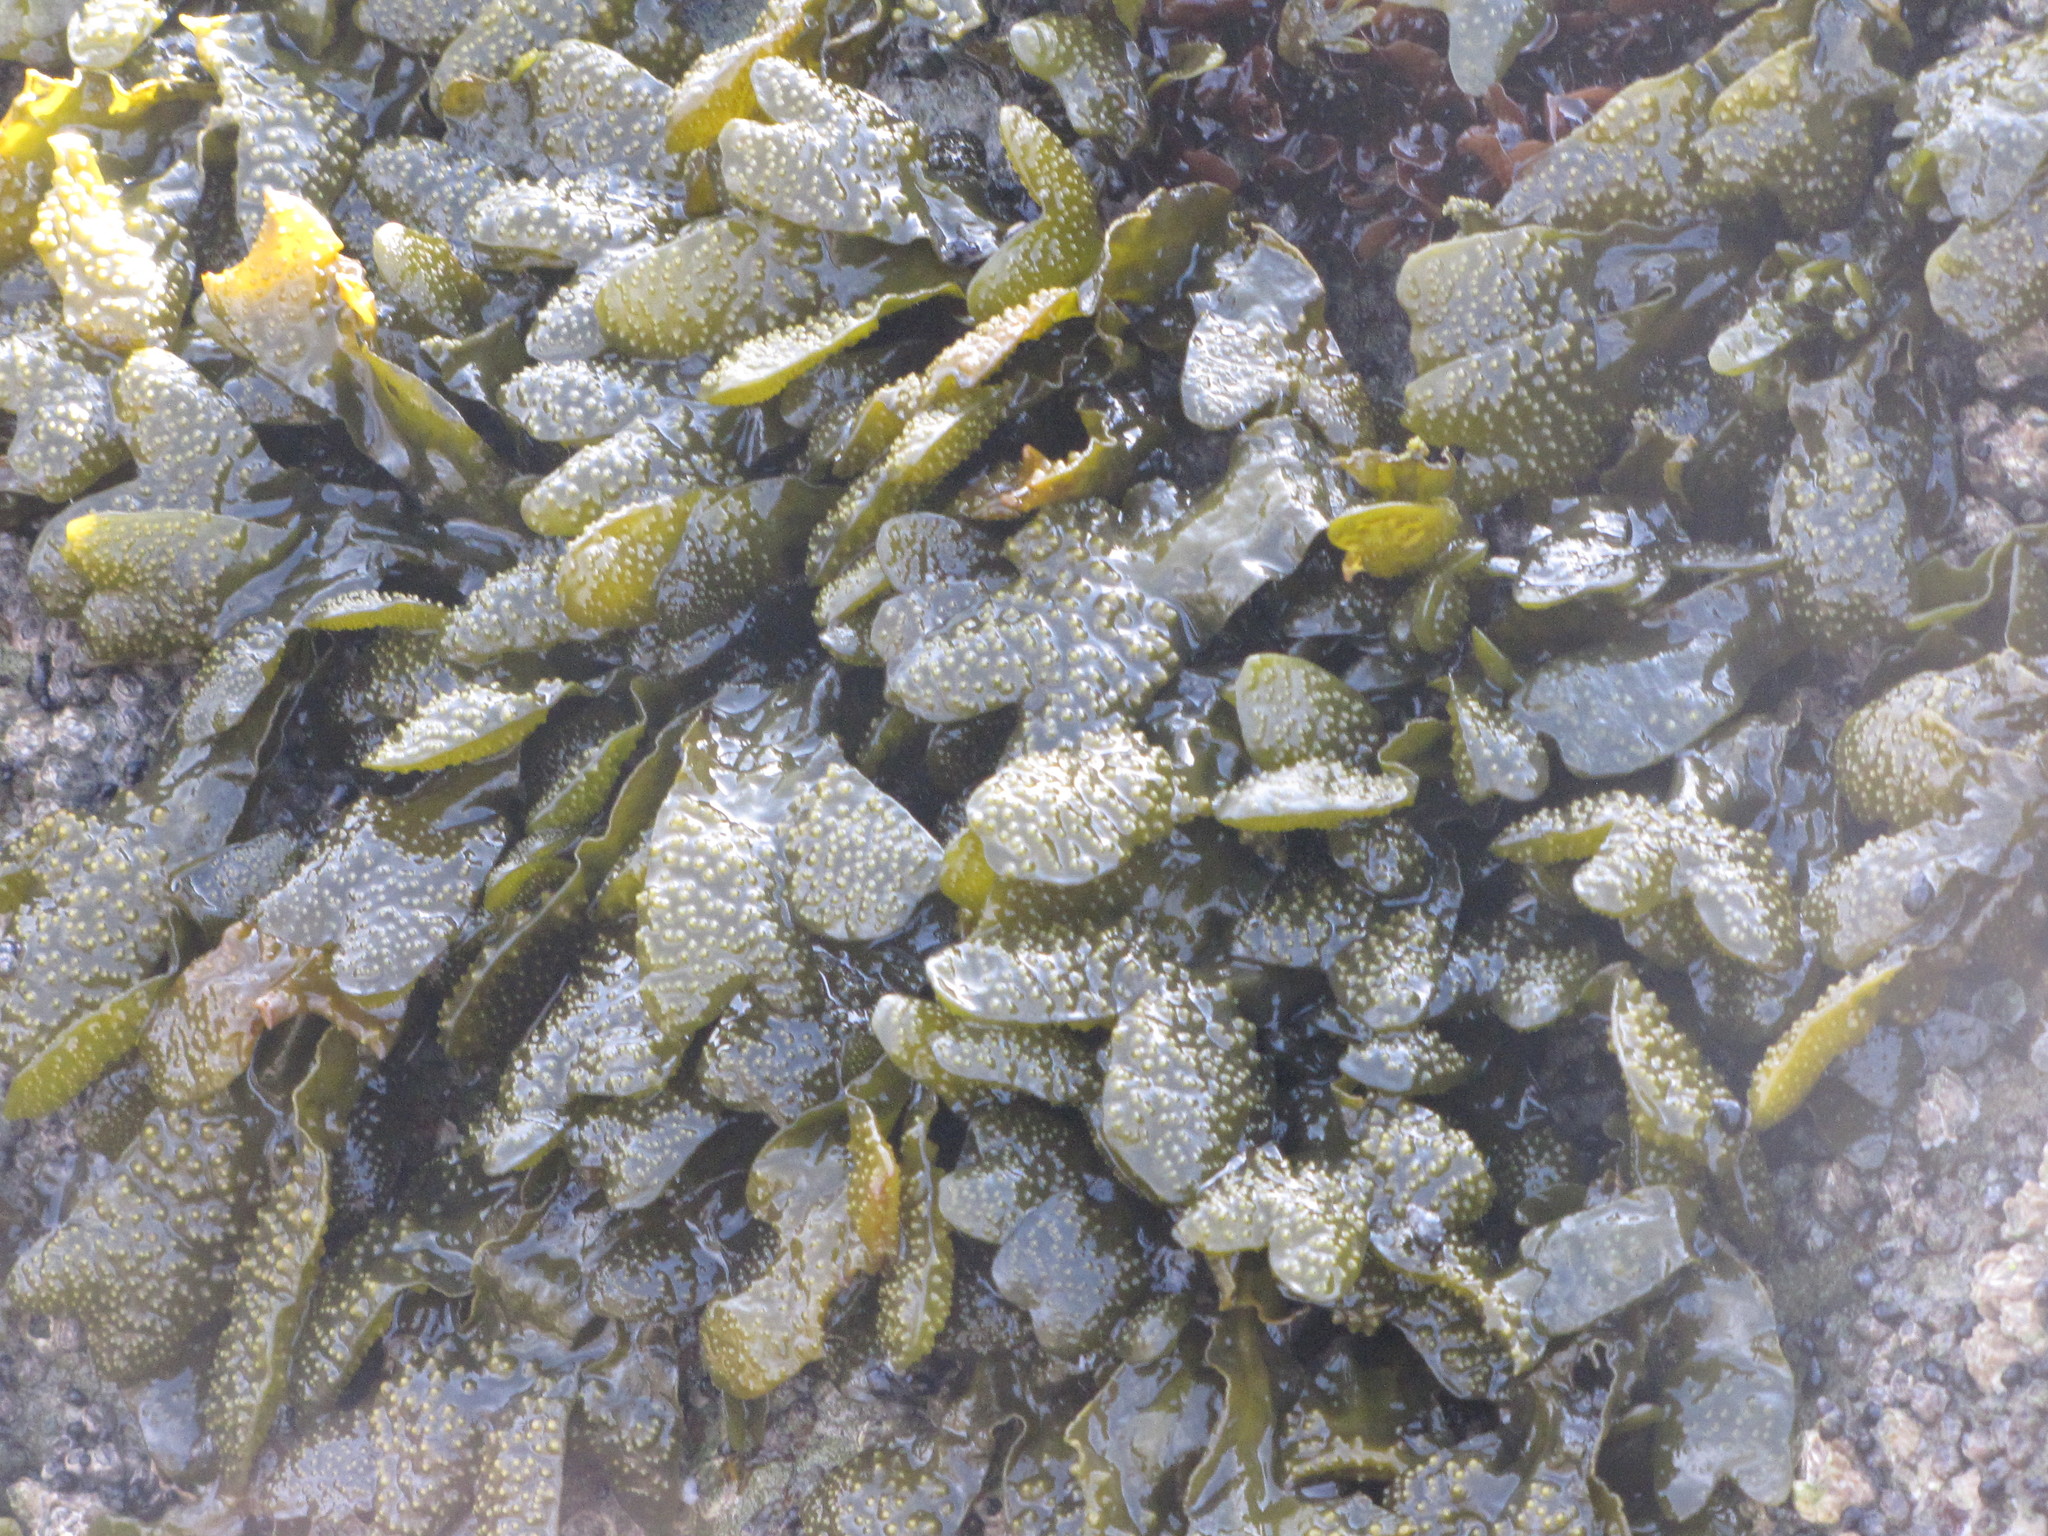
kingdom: Chromista
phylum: Ochrophyta
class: Phaeophyceae
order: Fucales
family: Fucaceae
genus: Fucus
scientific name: Fucus distichus
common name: Rockweed
